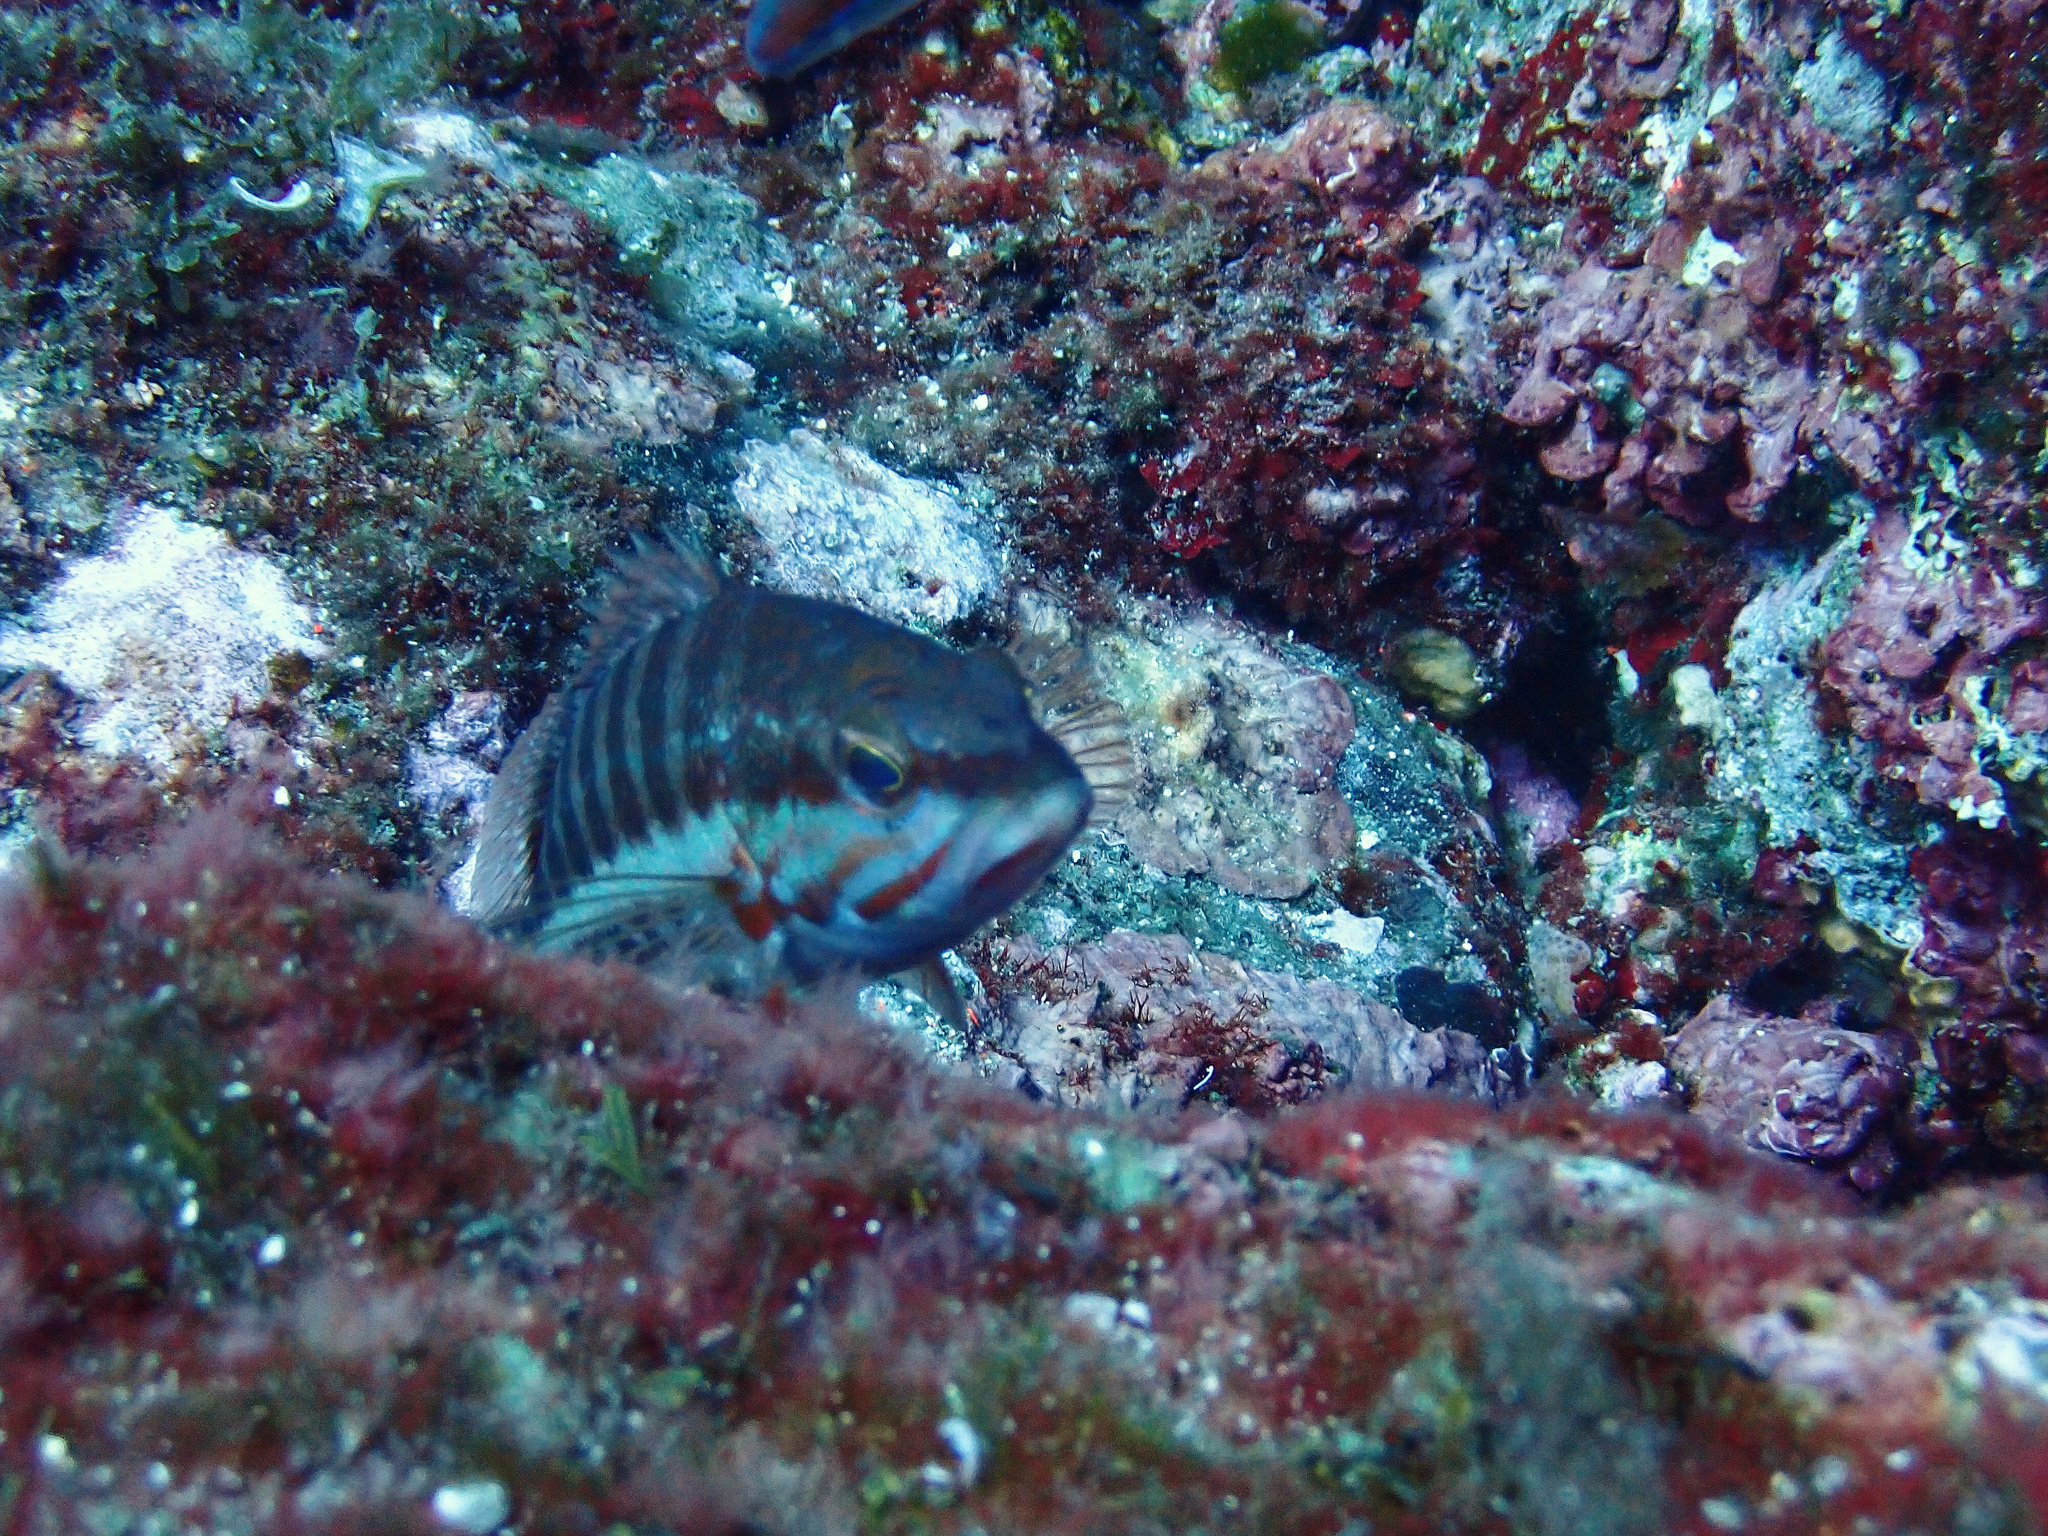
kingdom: Animalia
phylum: Chordata
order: Perciformes
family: Serranidae
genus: Serranus
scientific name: Serranus cabrilla
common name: Comber
